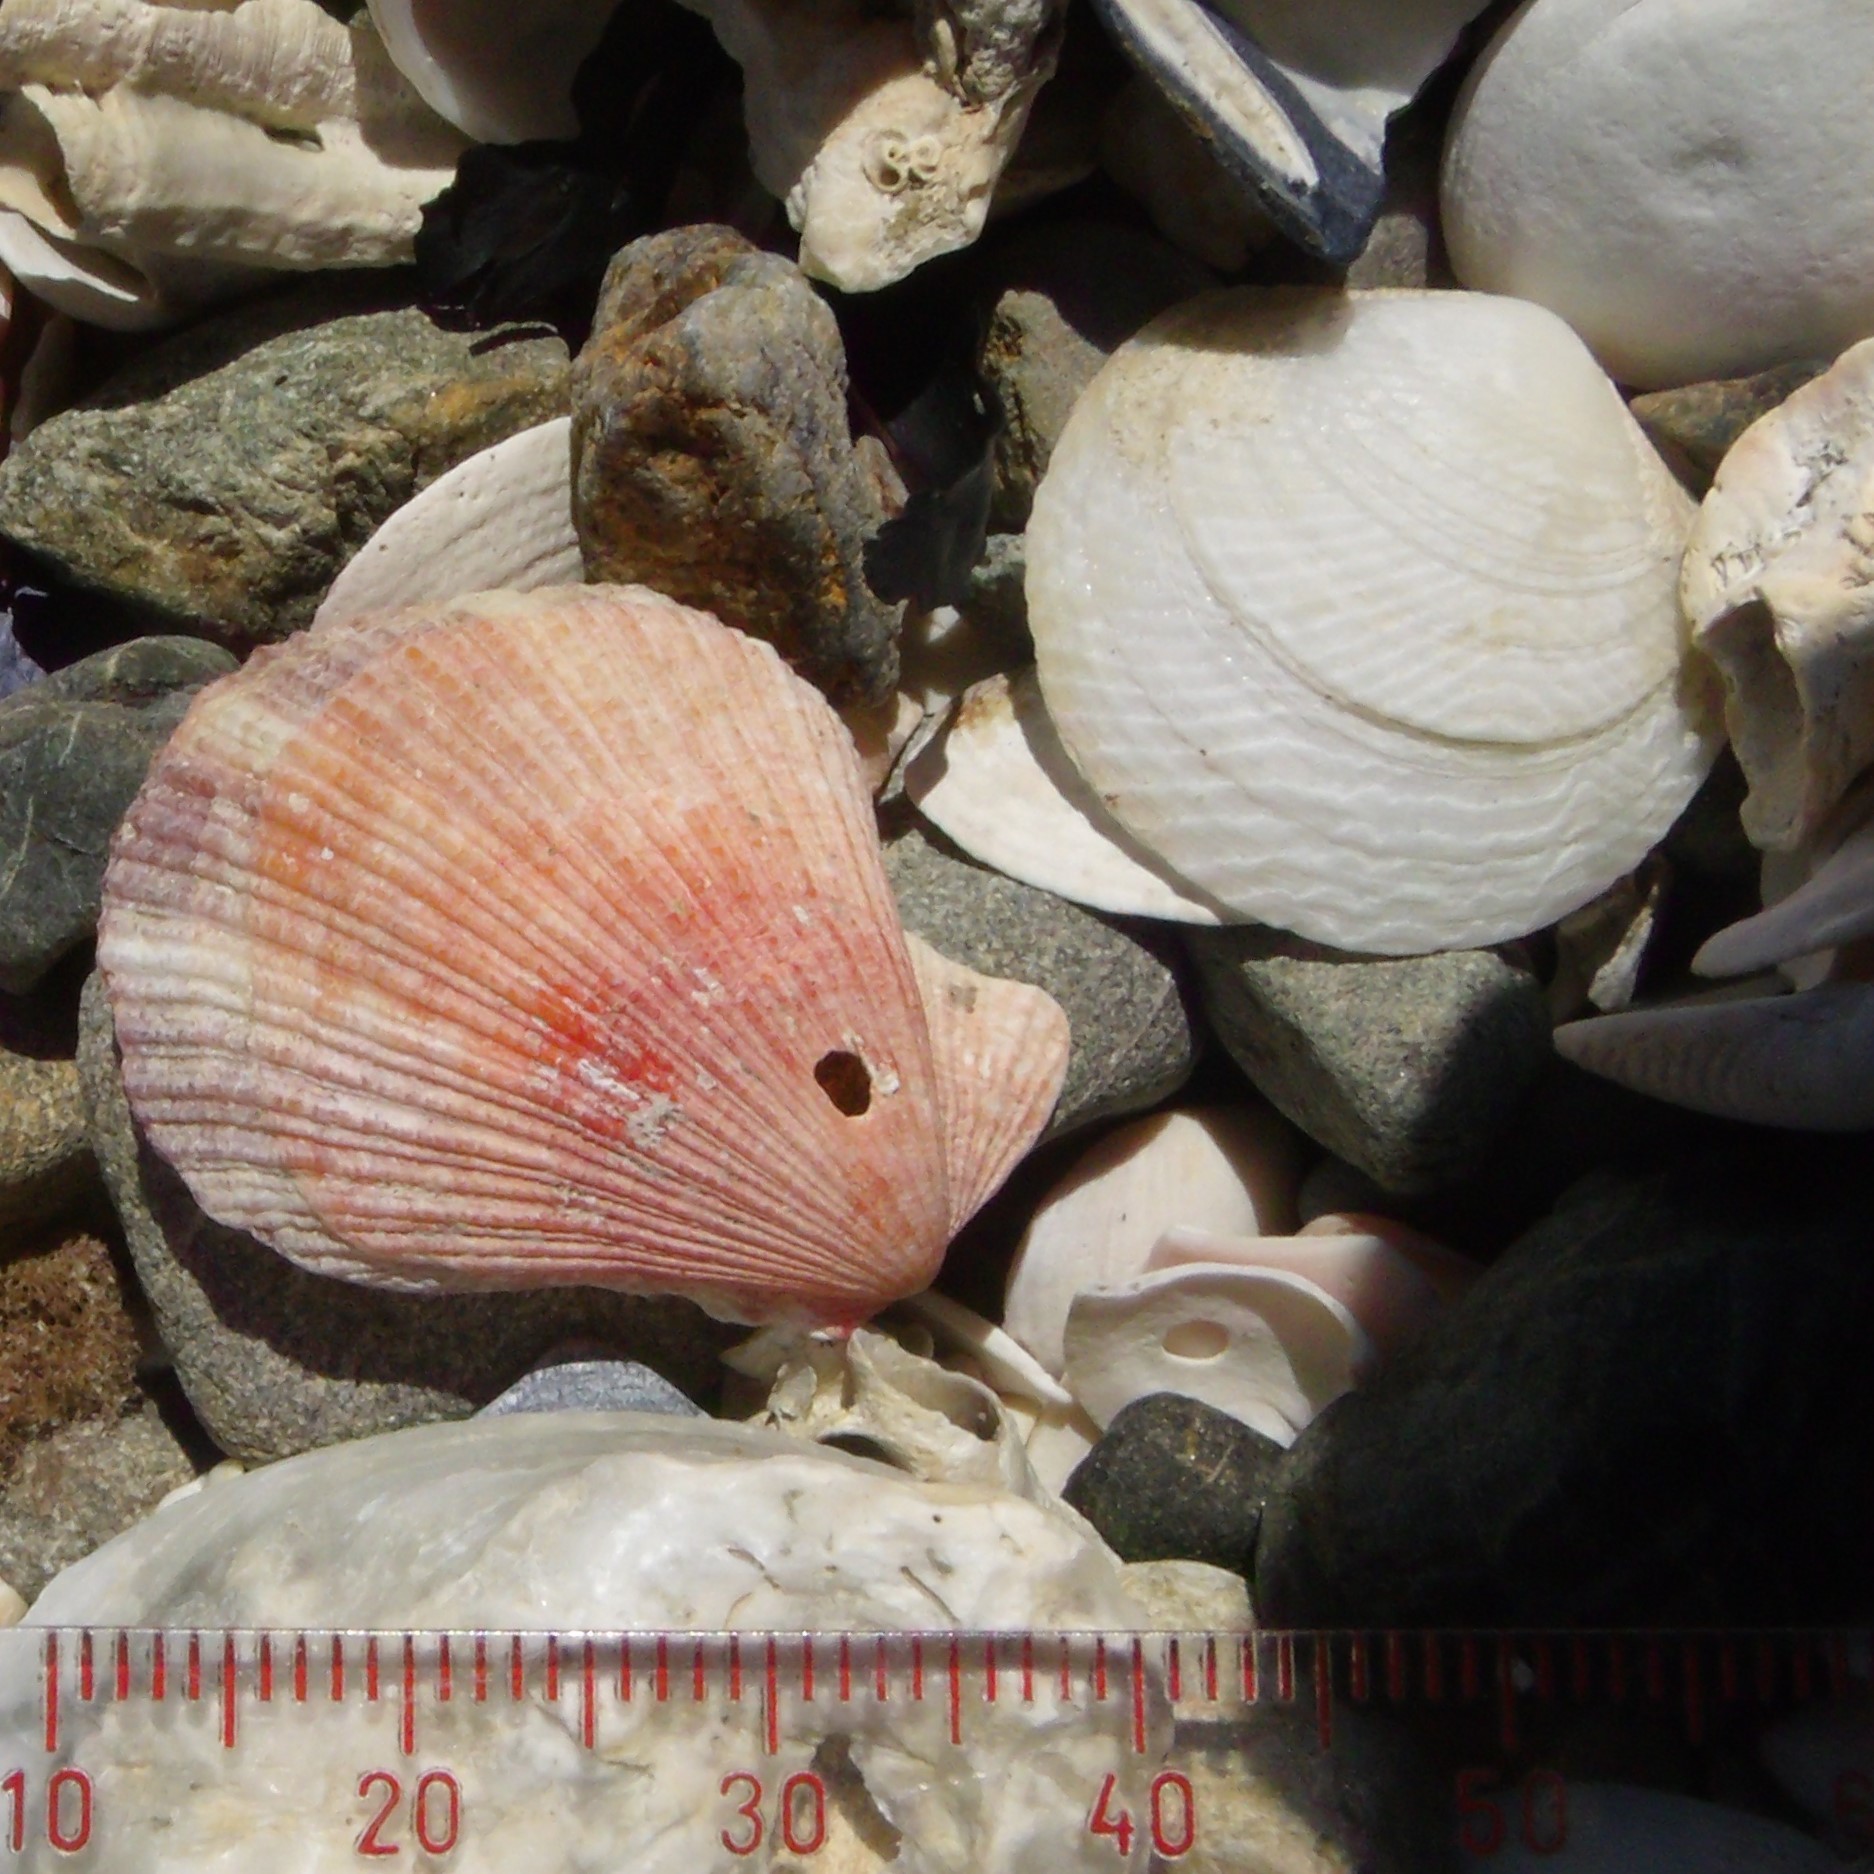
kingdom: Animalia
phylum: Mollusca
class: Bivalvia
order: Pectinida
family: Pectinidae
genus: Talochlamys
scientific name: Talochlamys zelandiae
